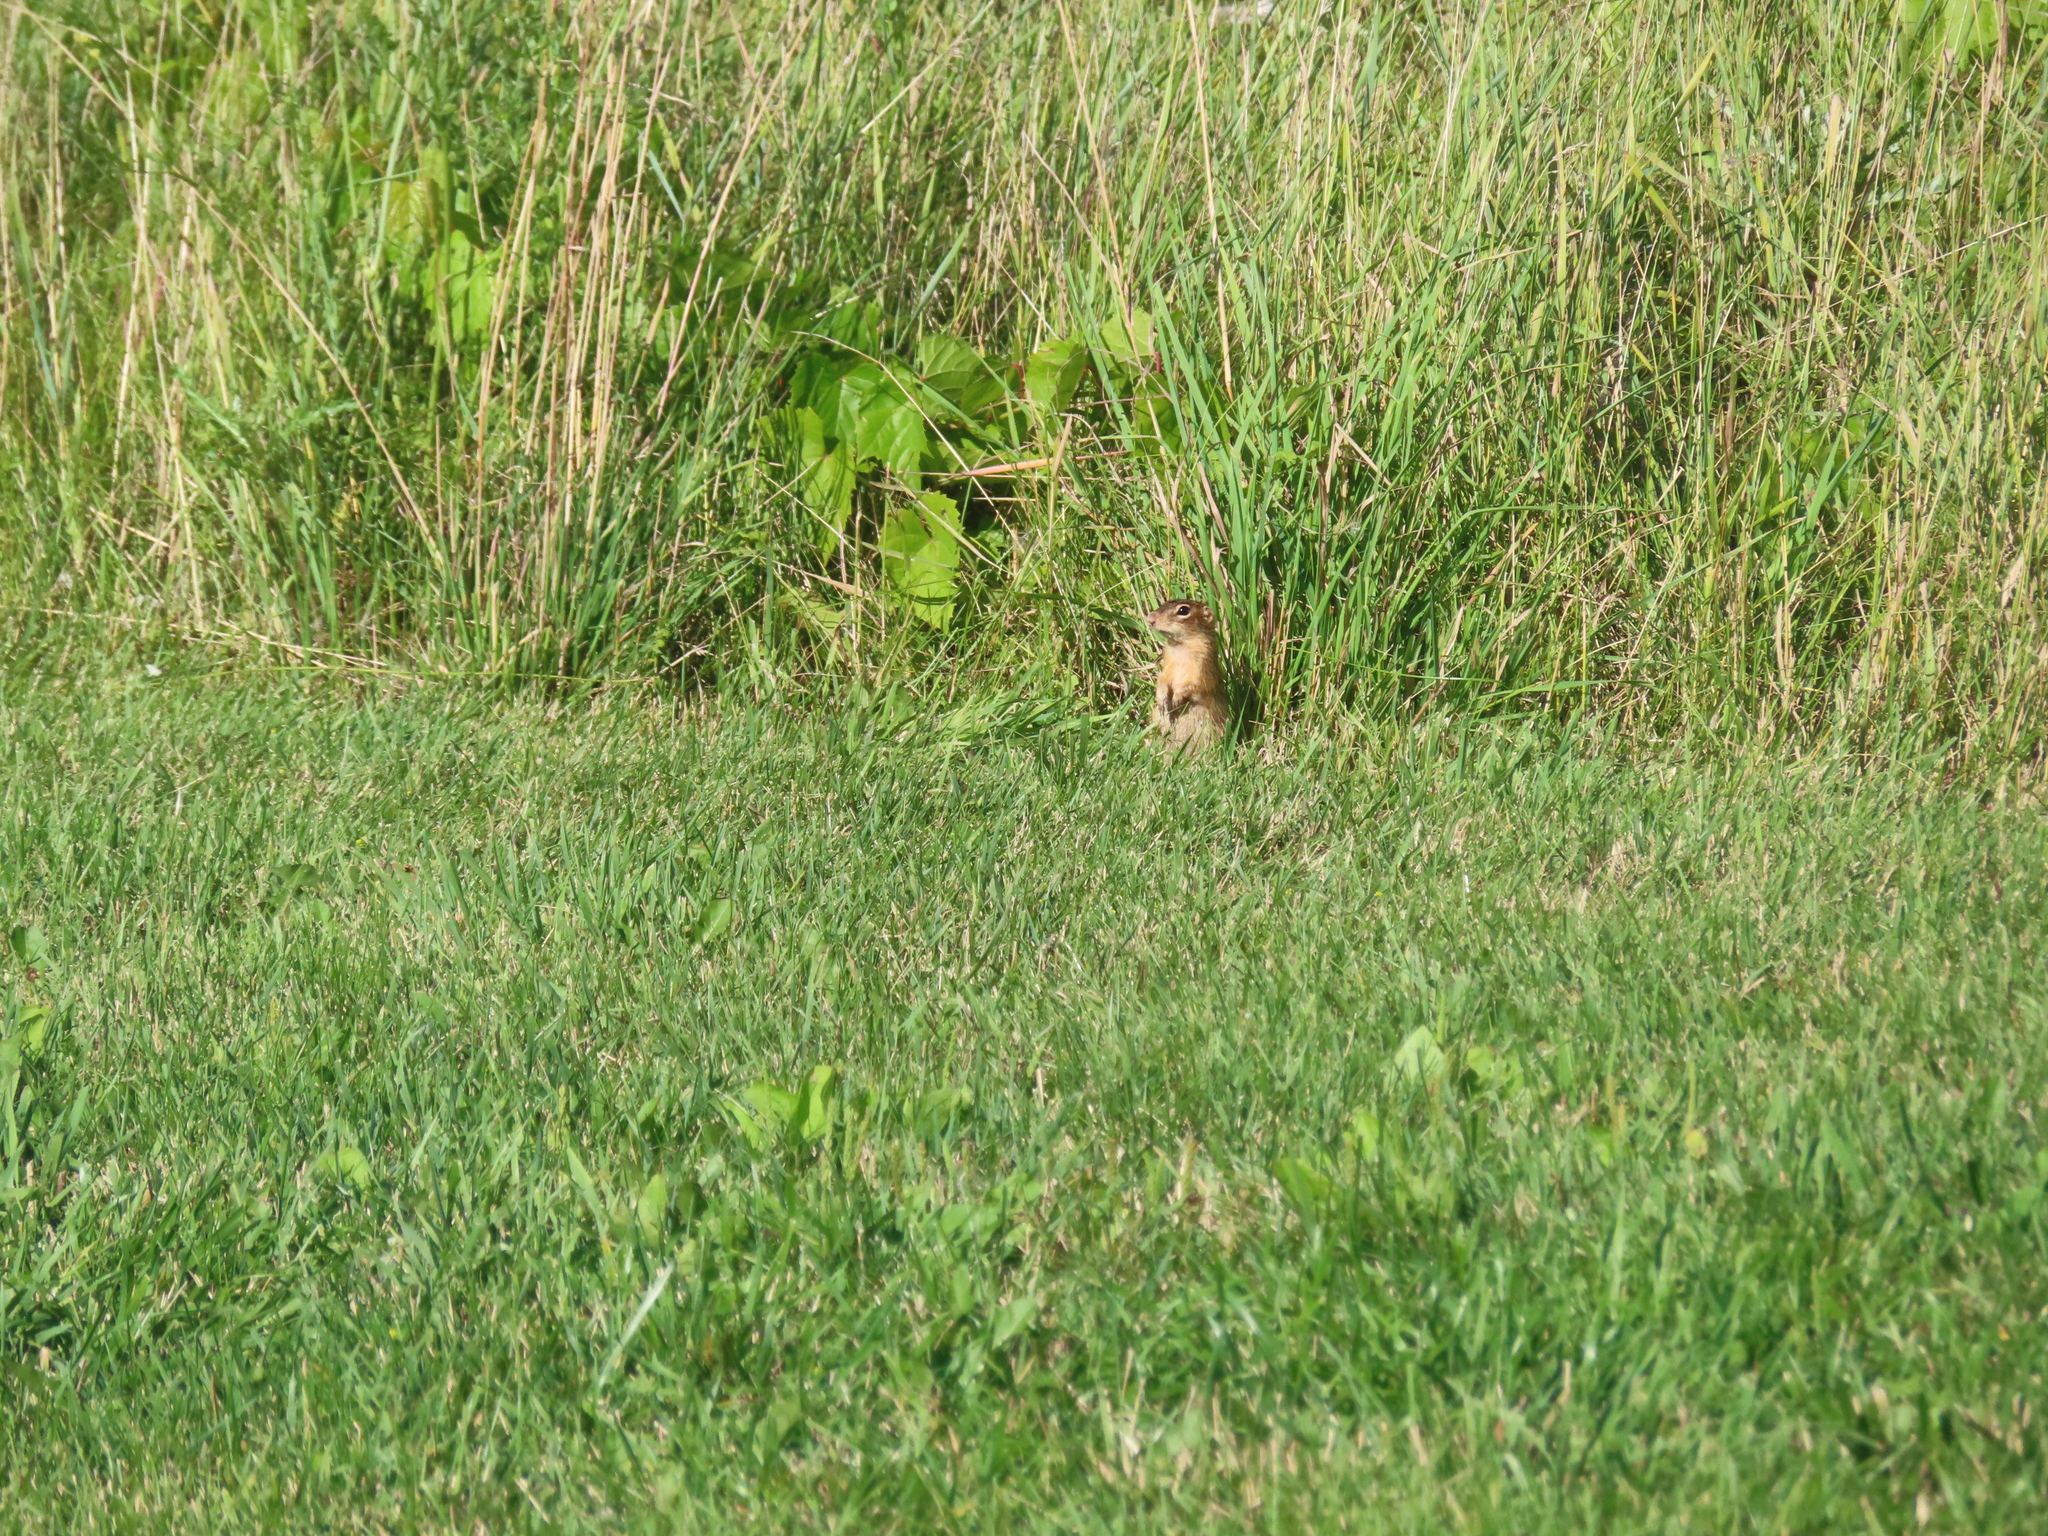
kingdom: Animalia
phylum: Chordata
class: Mammalia
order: Rodentia
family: Sciuridae
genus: Ictidomys
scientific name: Ictidomys tridecemlineatus
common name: Thirteen-lined ground squirrel
